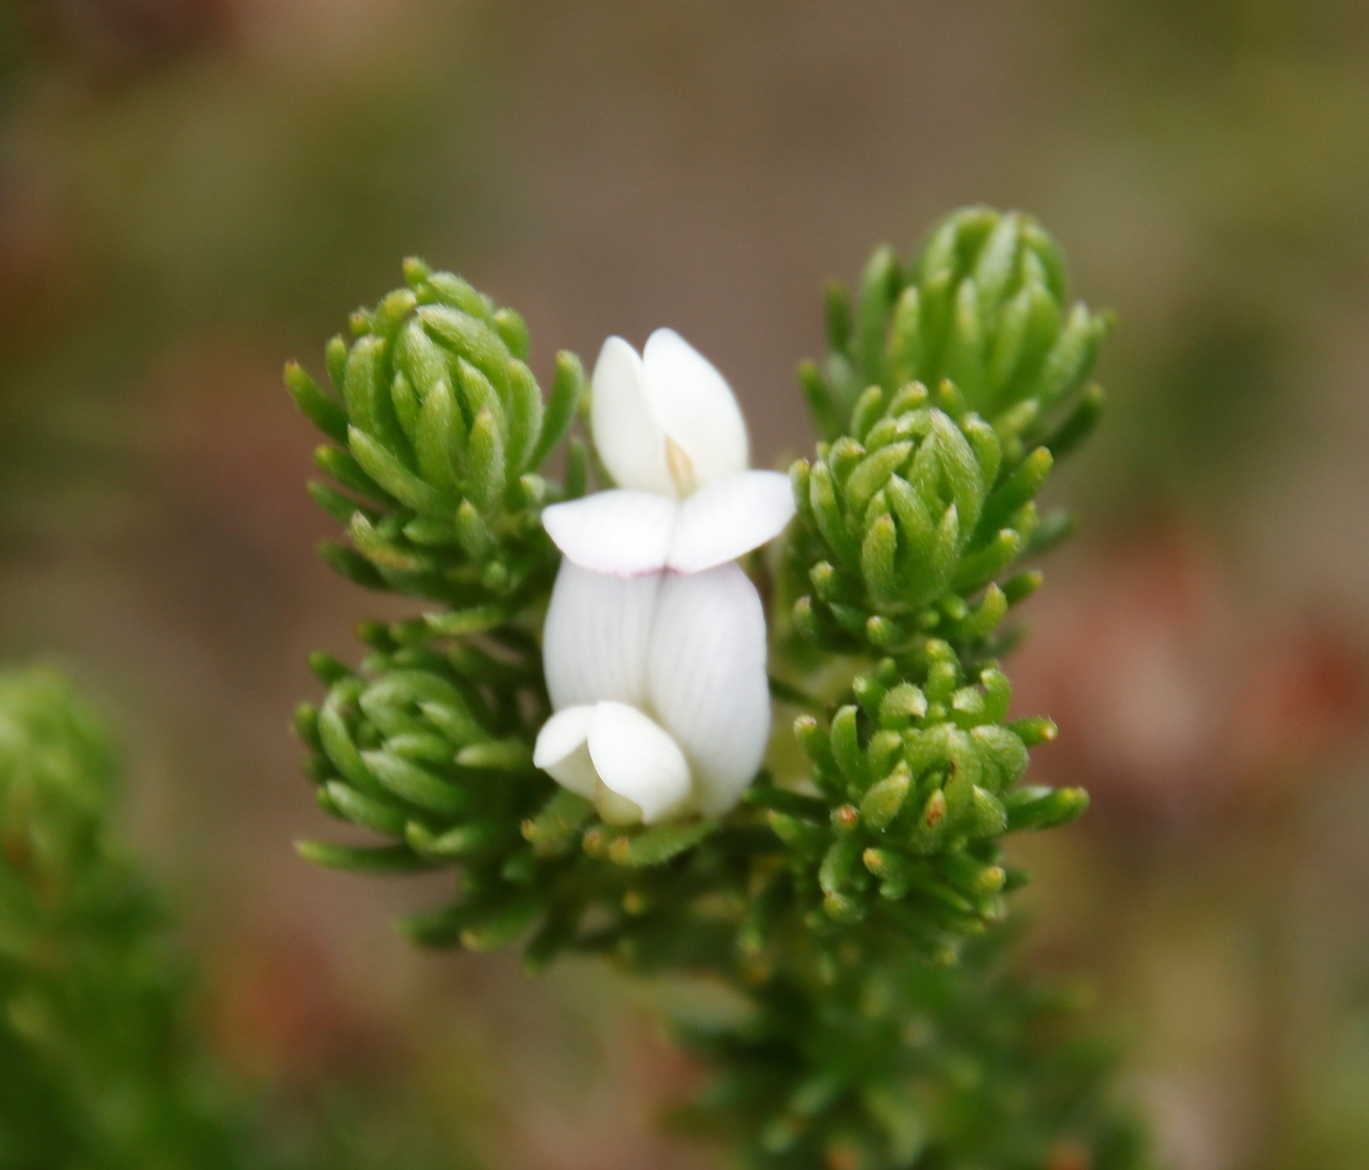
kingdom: Plantae
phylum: Tracheophyta
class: Magnoliopsida
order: Fabales
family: Fabaceae
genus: Aspalathus
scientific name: Aspalathus forbesii
